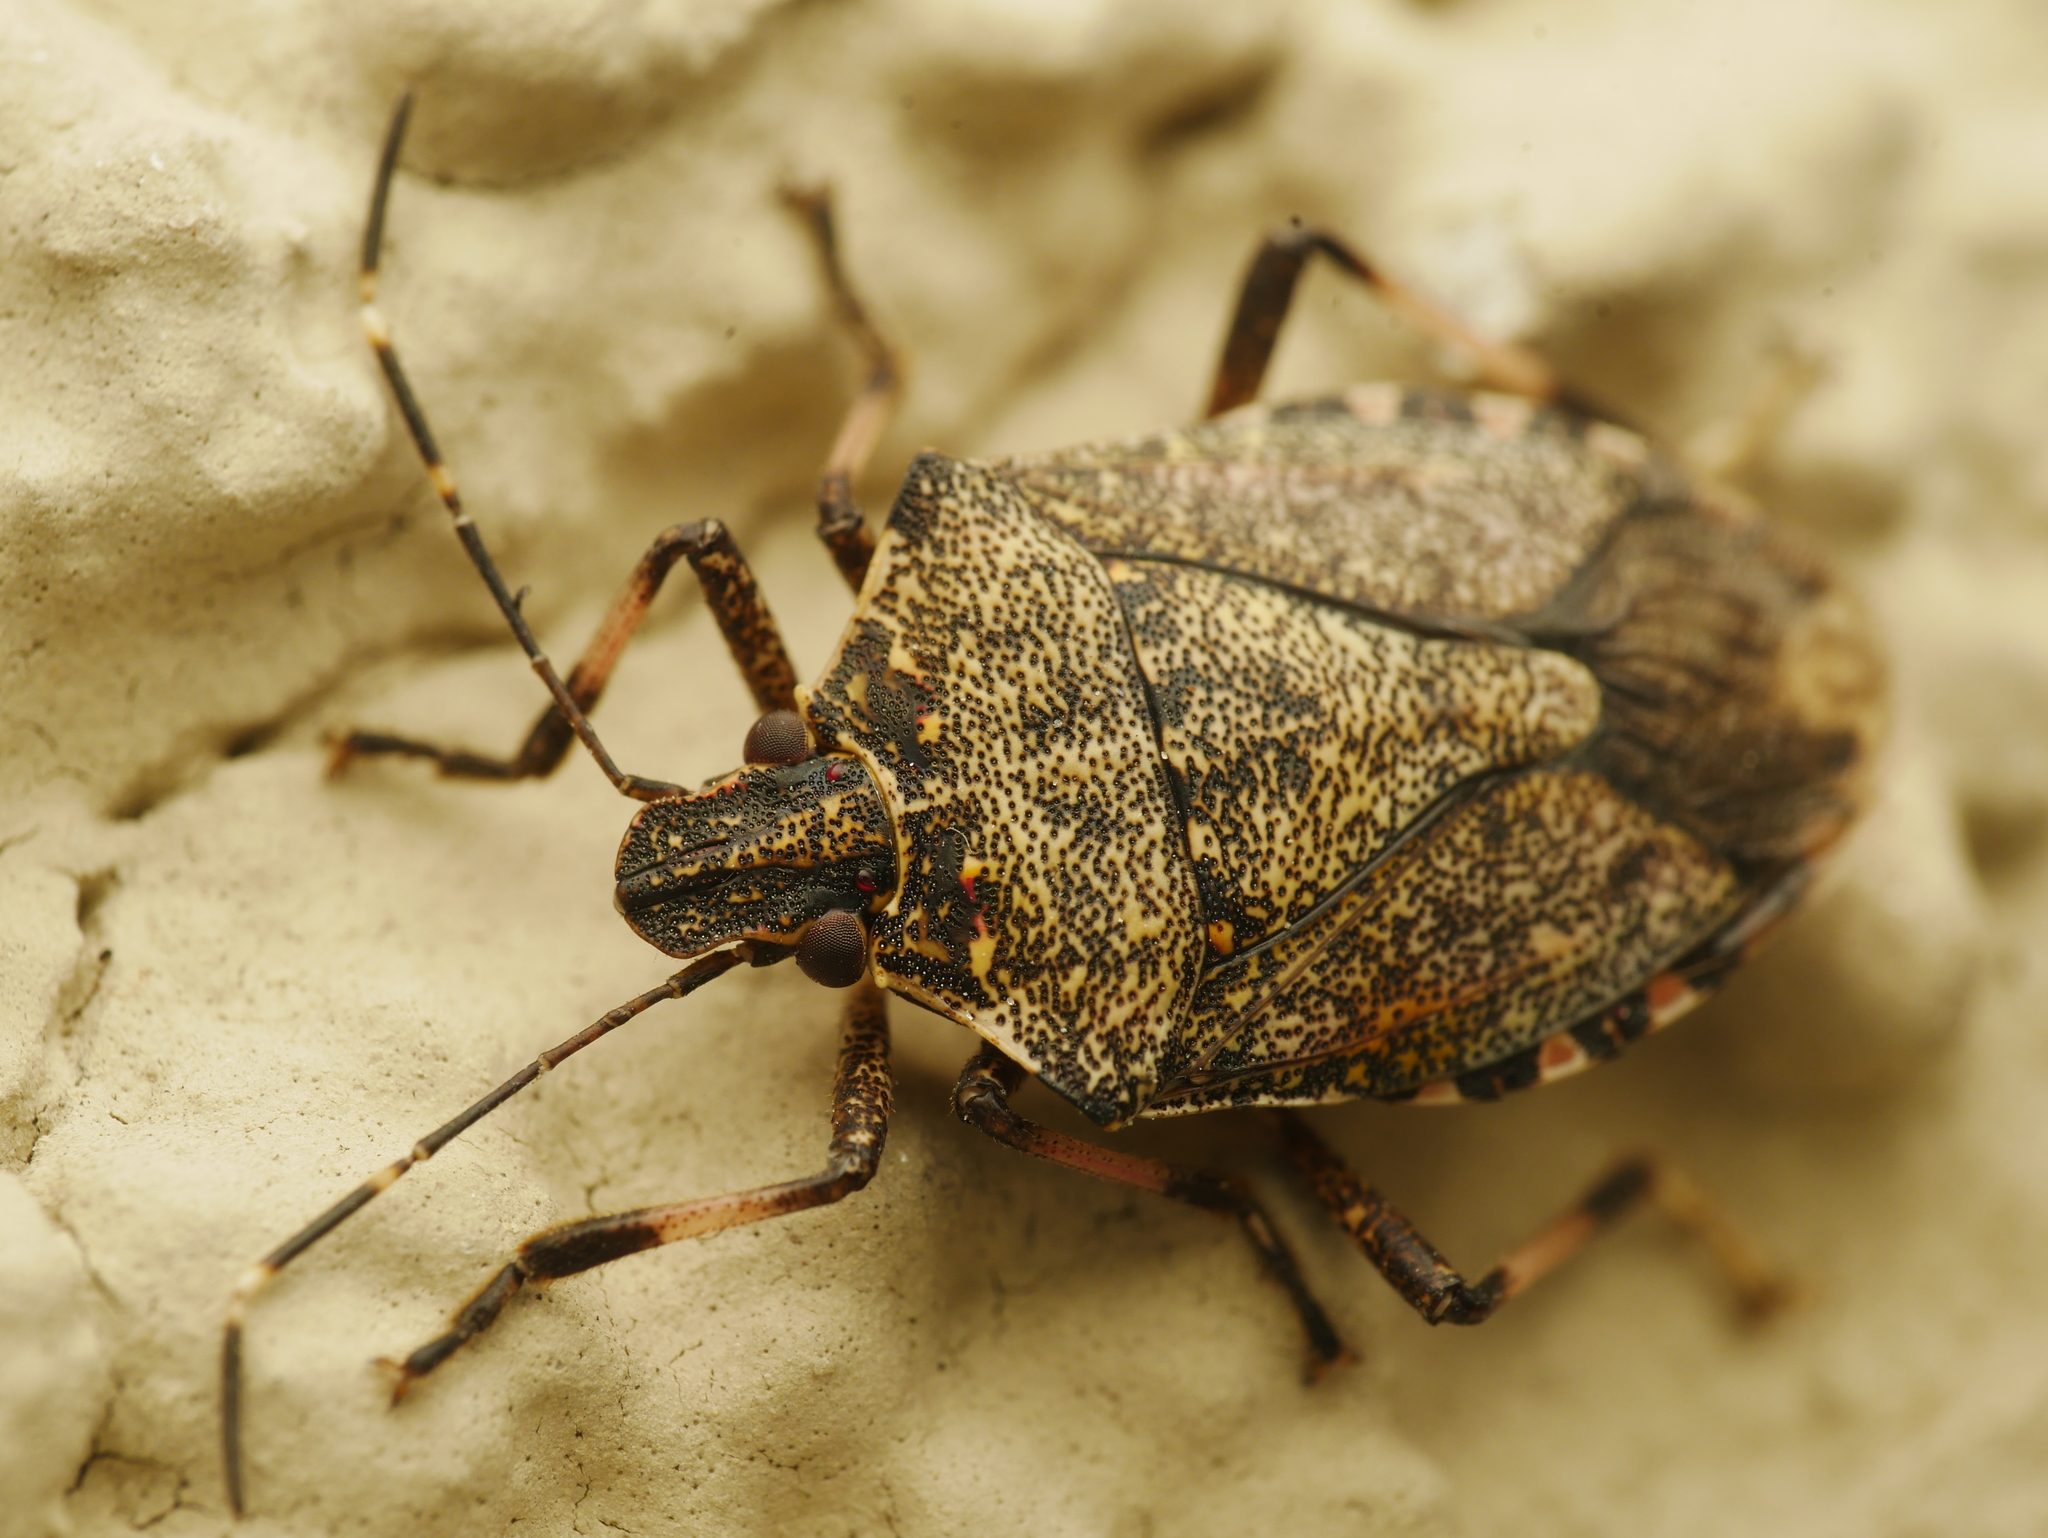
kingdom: Animalia
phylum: Arthropoda
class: Insecta
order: Hemiptera
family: Pentatomidae
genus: Halyomorpha
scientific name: Halyomorpha halys
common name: Brown marmorated stink bug
